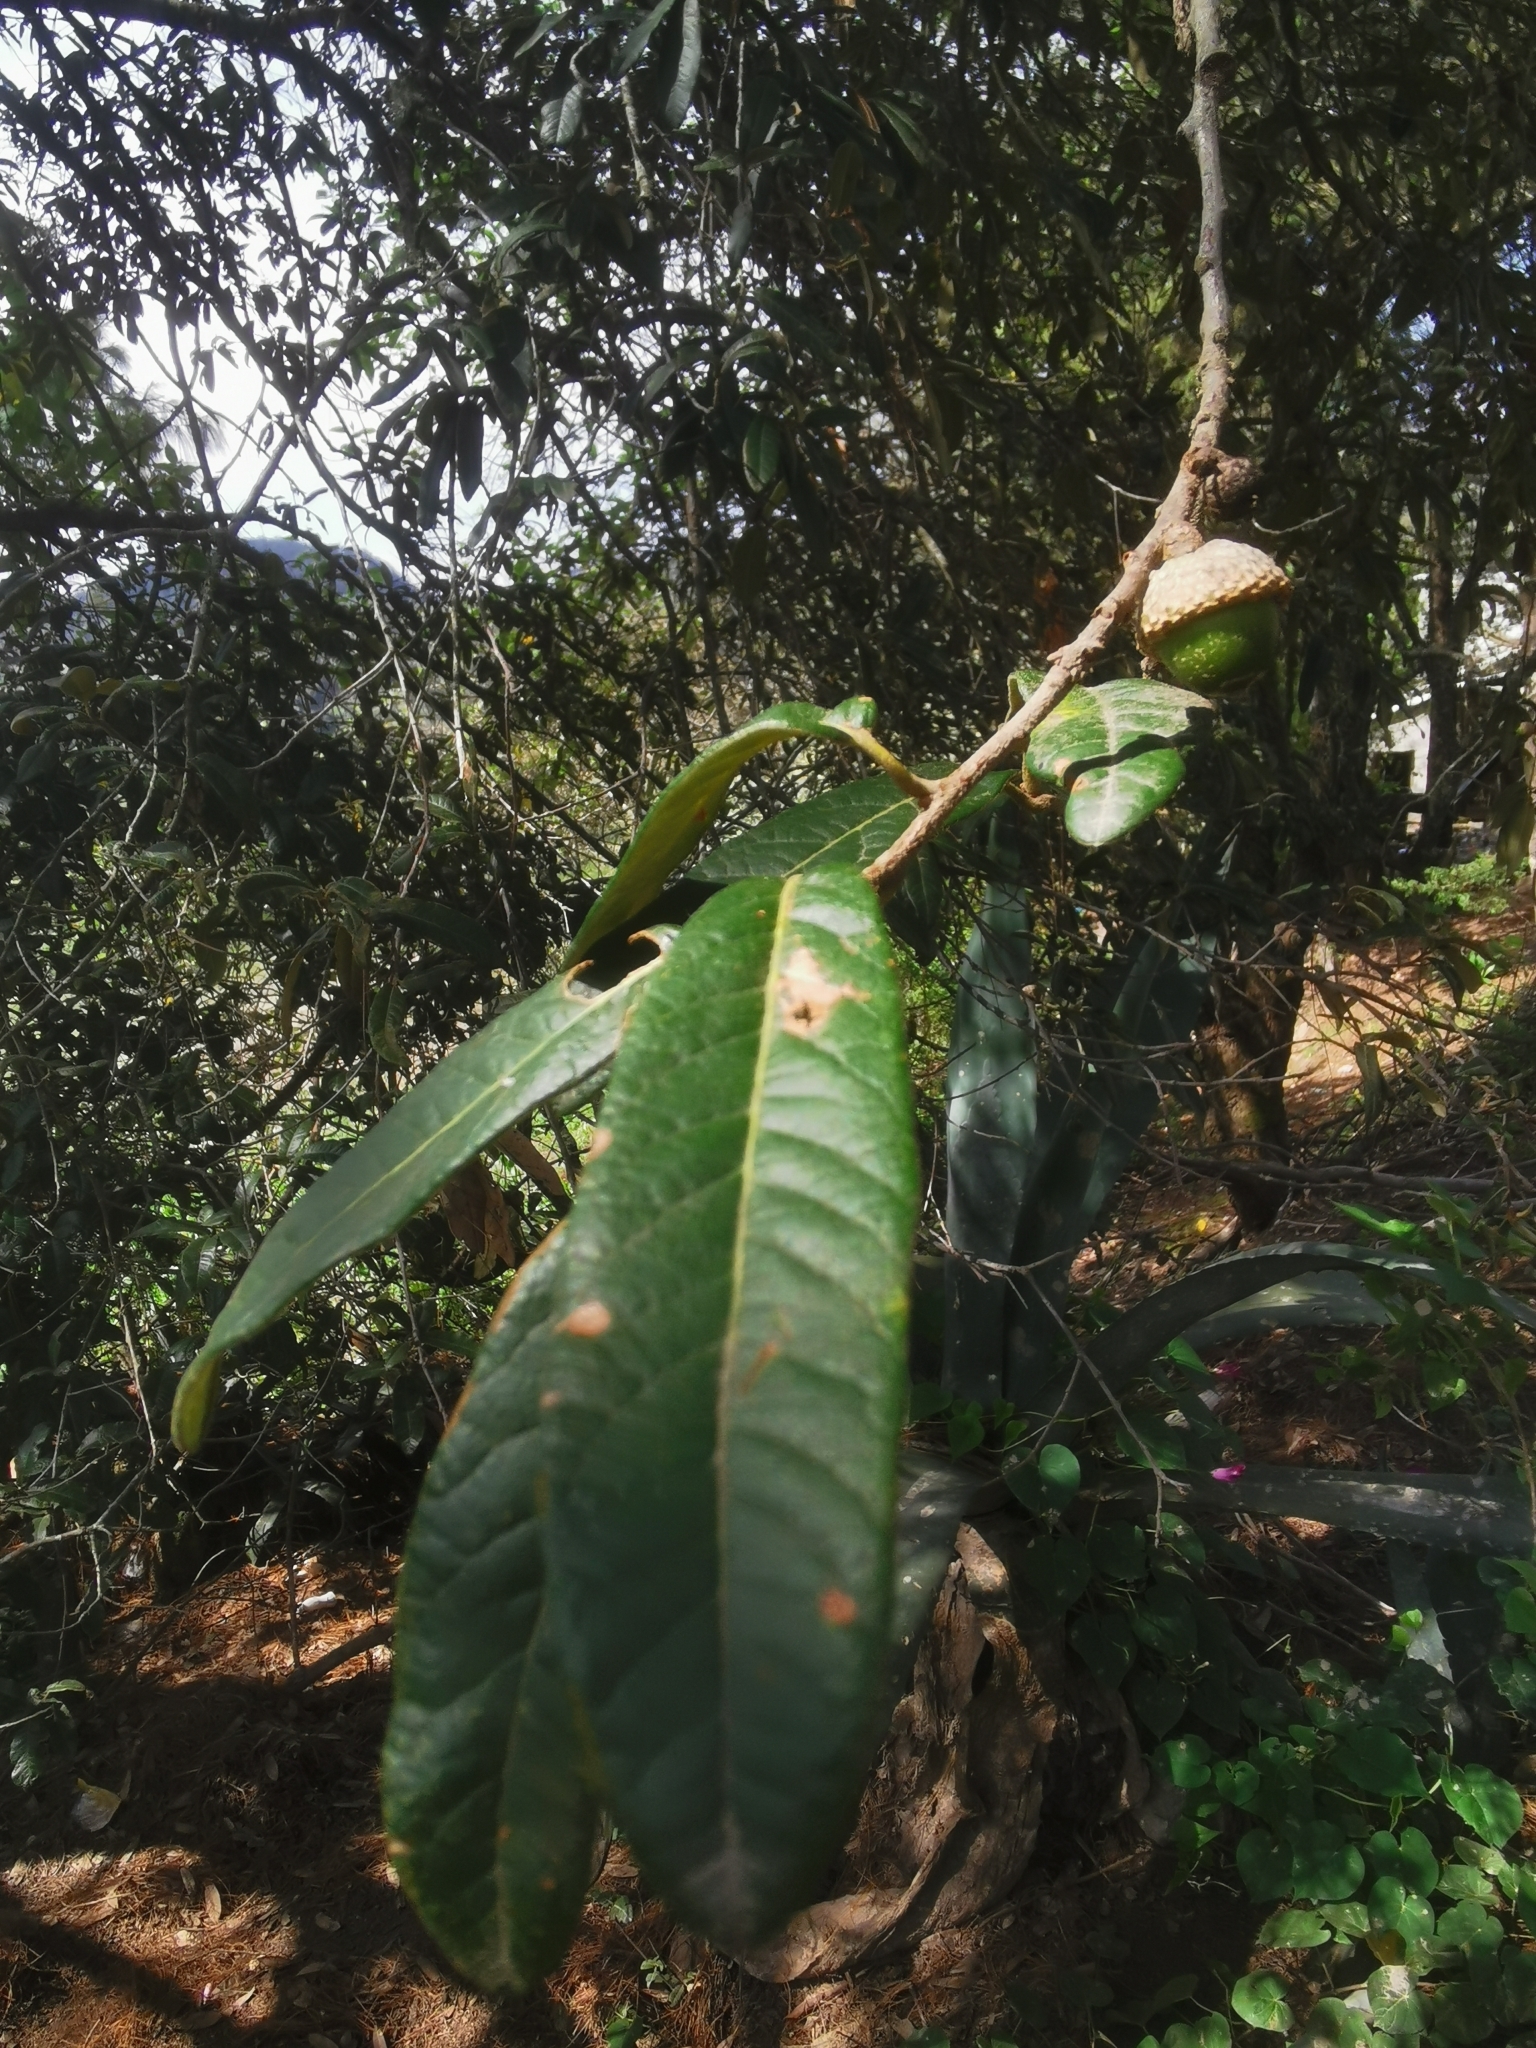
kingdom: Plantae
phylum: Tracheophyta
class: Magnoliopsida
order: Fagales
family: Fagaceae
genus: Quercus
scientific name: Quercus crassipes
